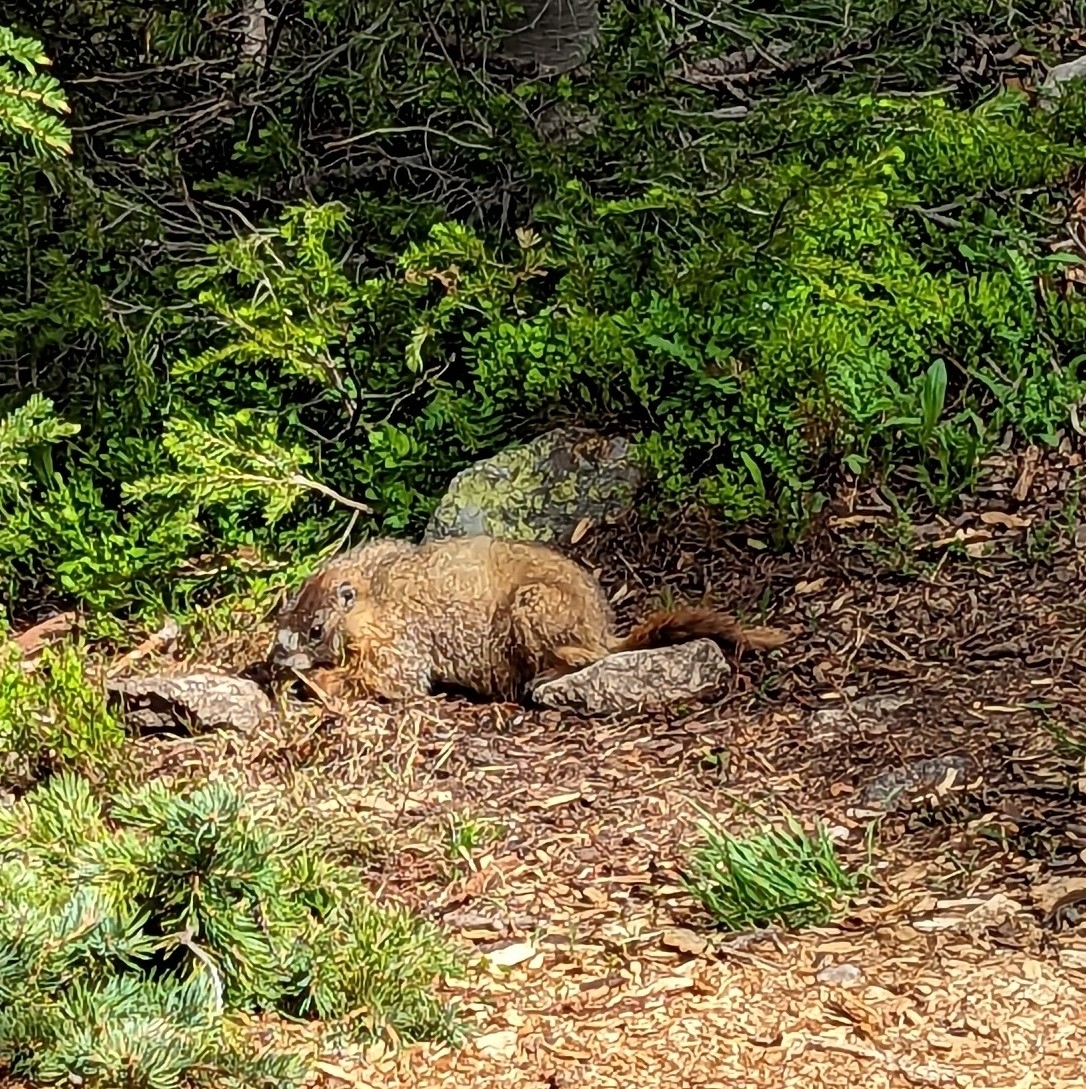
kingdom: Animalia
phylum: Chordata
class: Mammalia
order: Rodentia
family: Sciuridae
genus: Marmota
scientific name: Marmota flaviventris
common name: Yellow-bellied marmot
